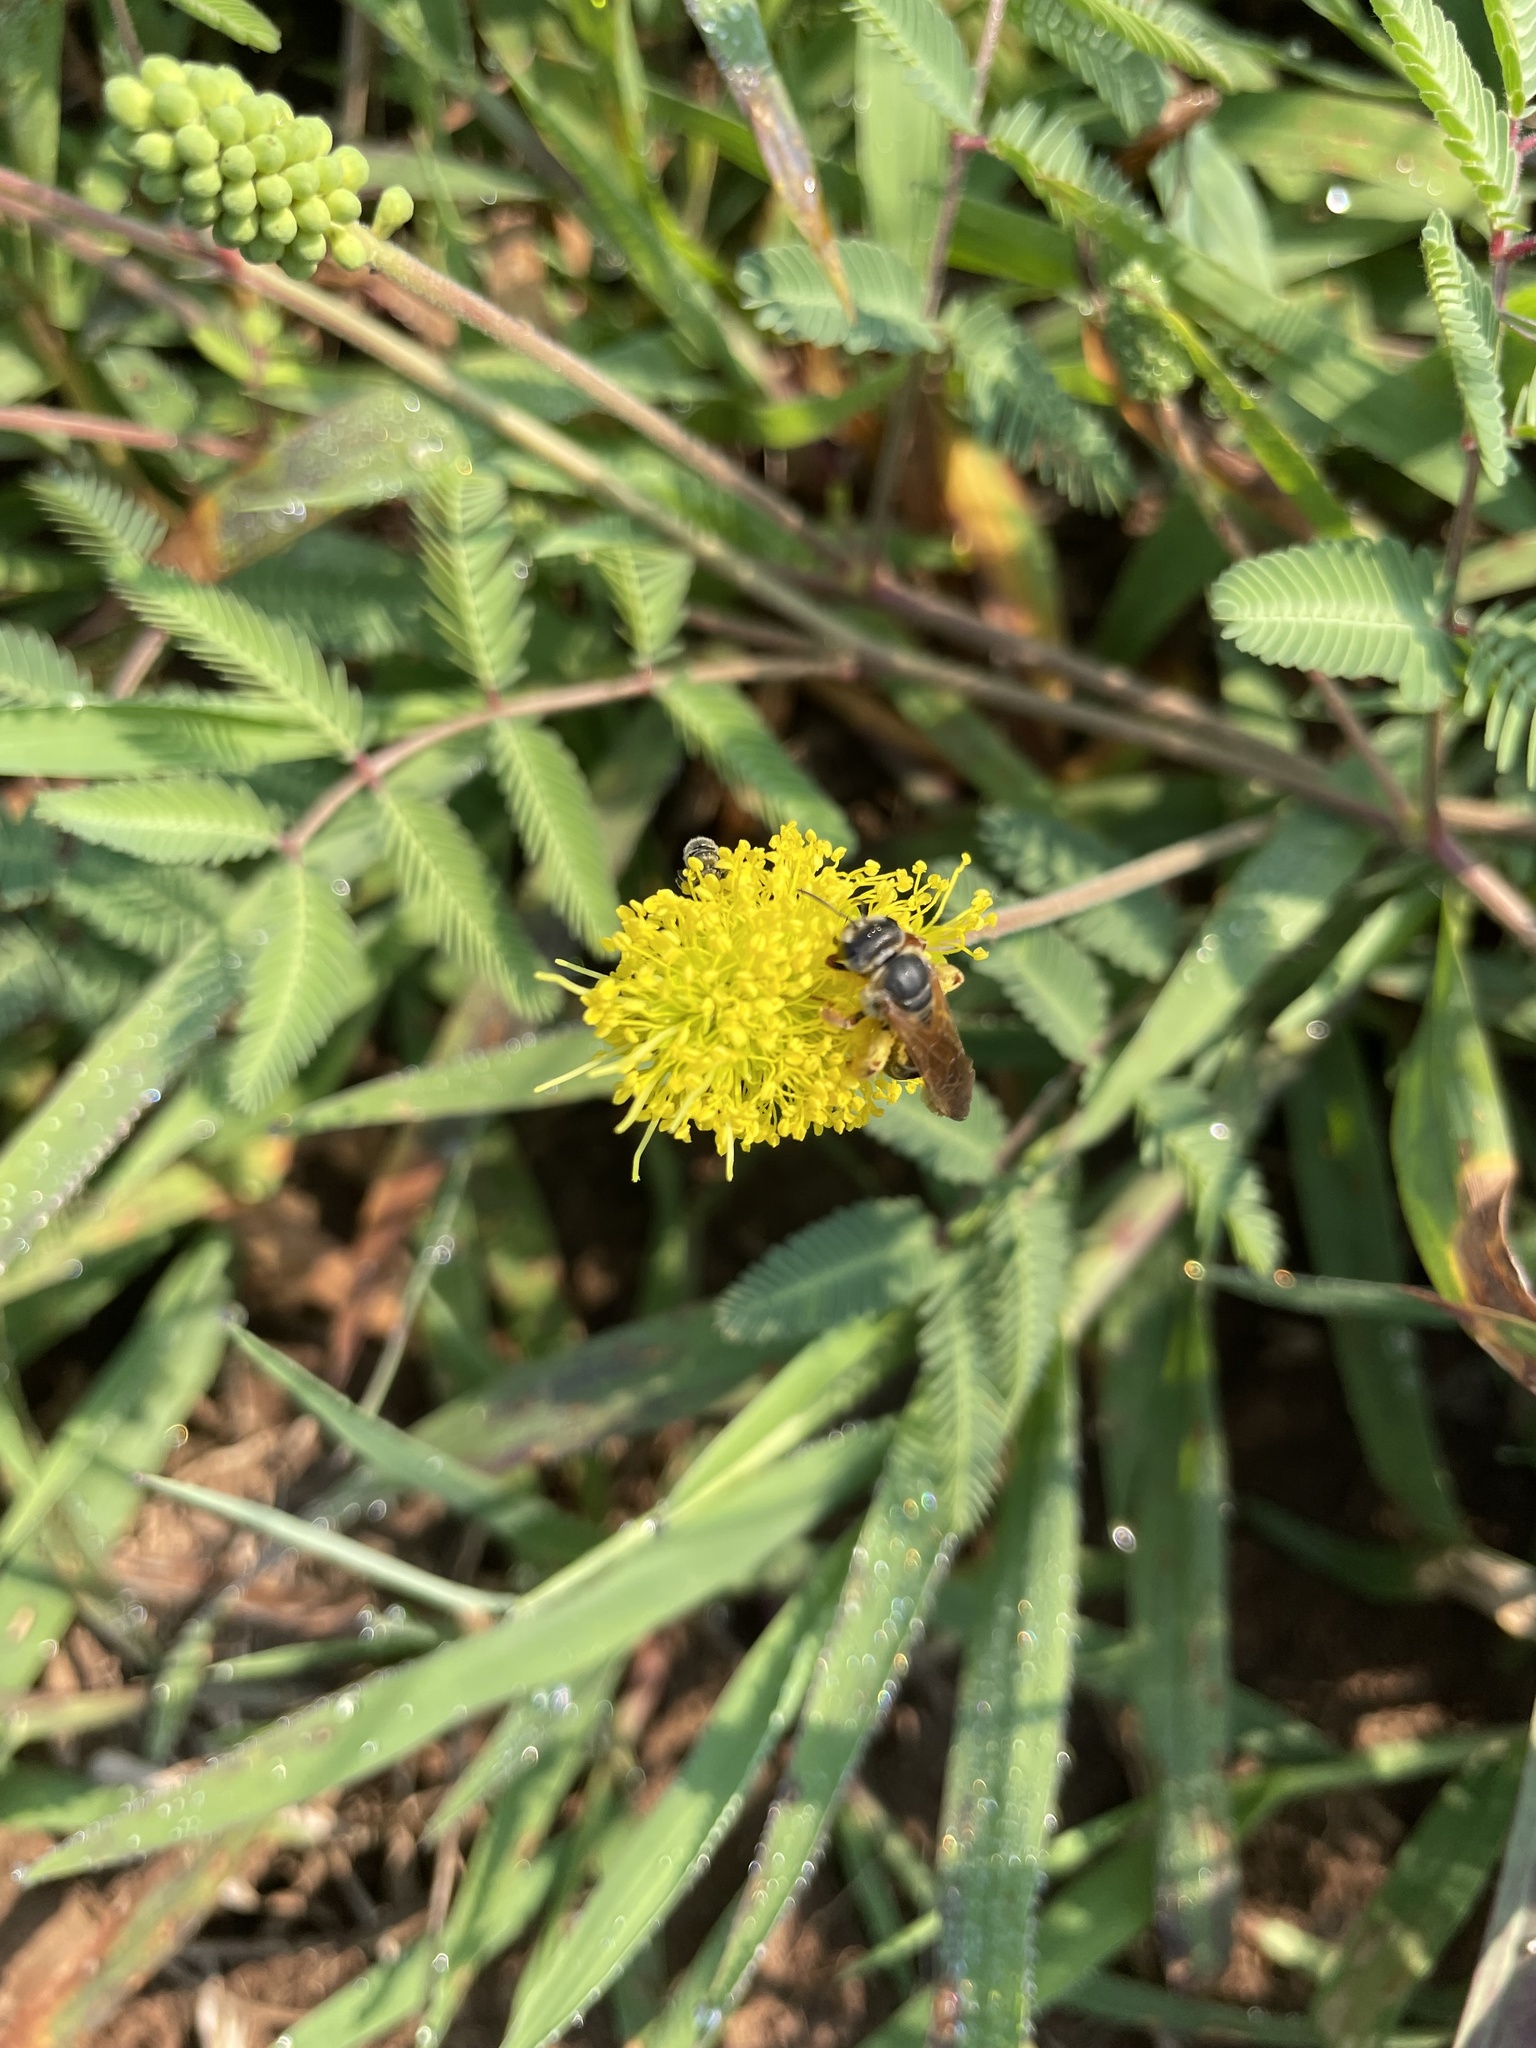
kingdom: Animalia
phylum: Arthropoda
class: Insecta
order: Hymenoptera
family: Halictidae
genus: Halictus
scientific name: Halictus parallelus
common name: Parallel-striped sweat bee
